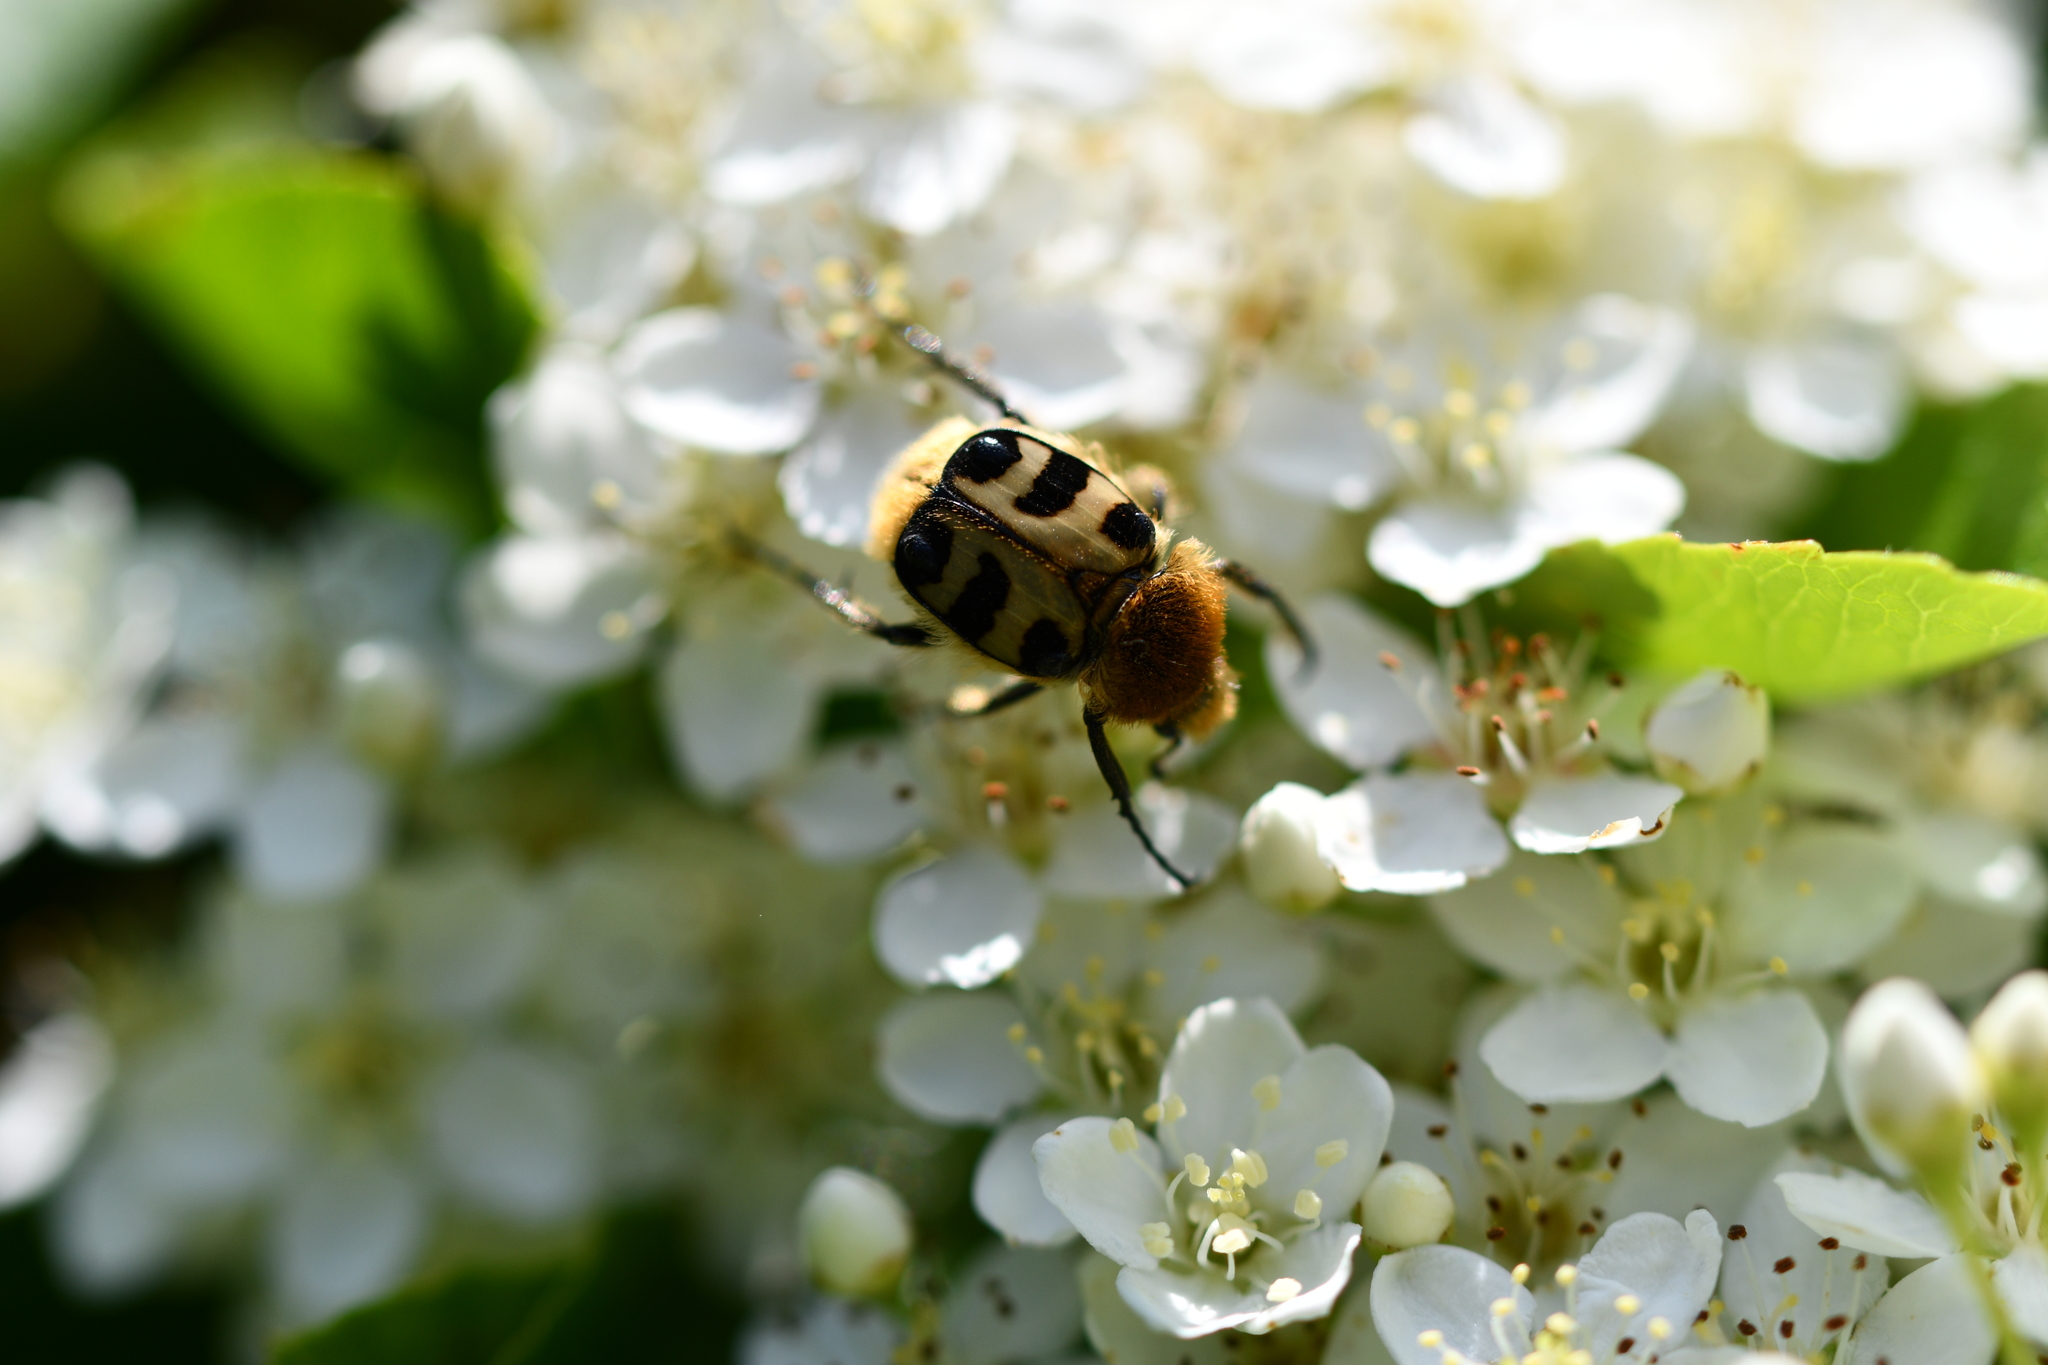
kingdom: Animalia
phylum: Arthropoda
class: Insecta
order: Coleoptera
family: Scarabaeidae
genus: Trichius
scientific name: Trichius gallicus
